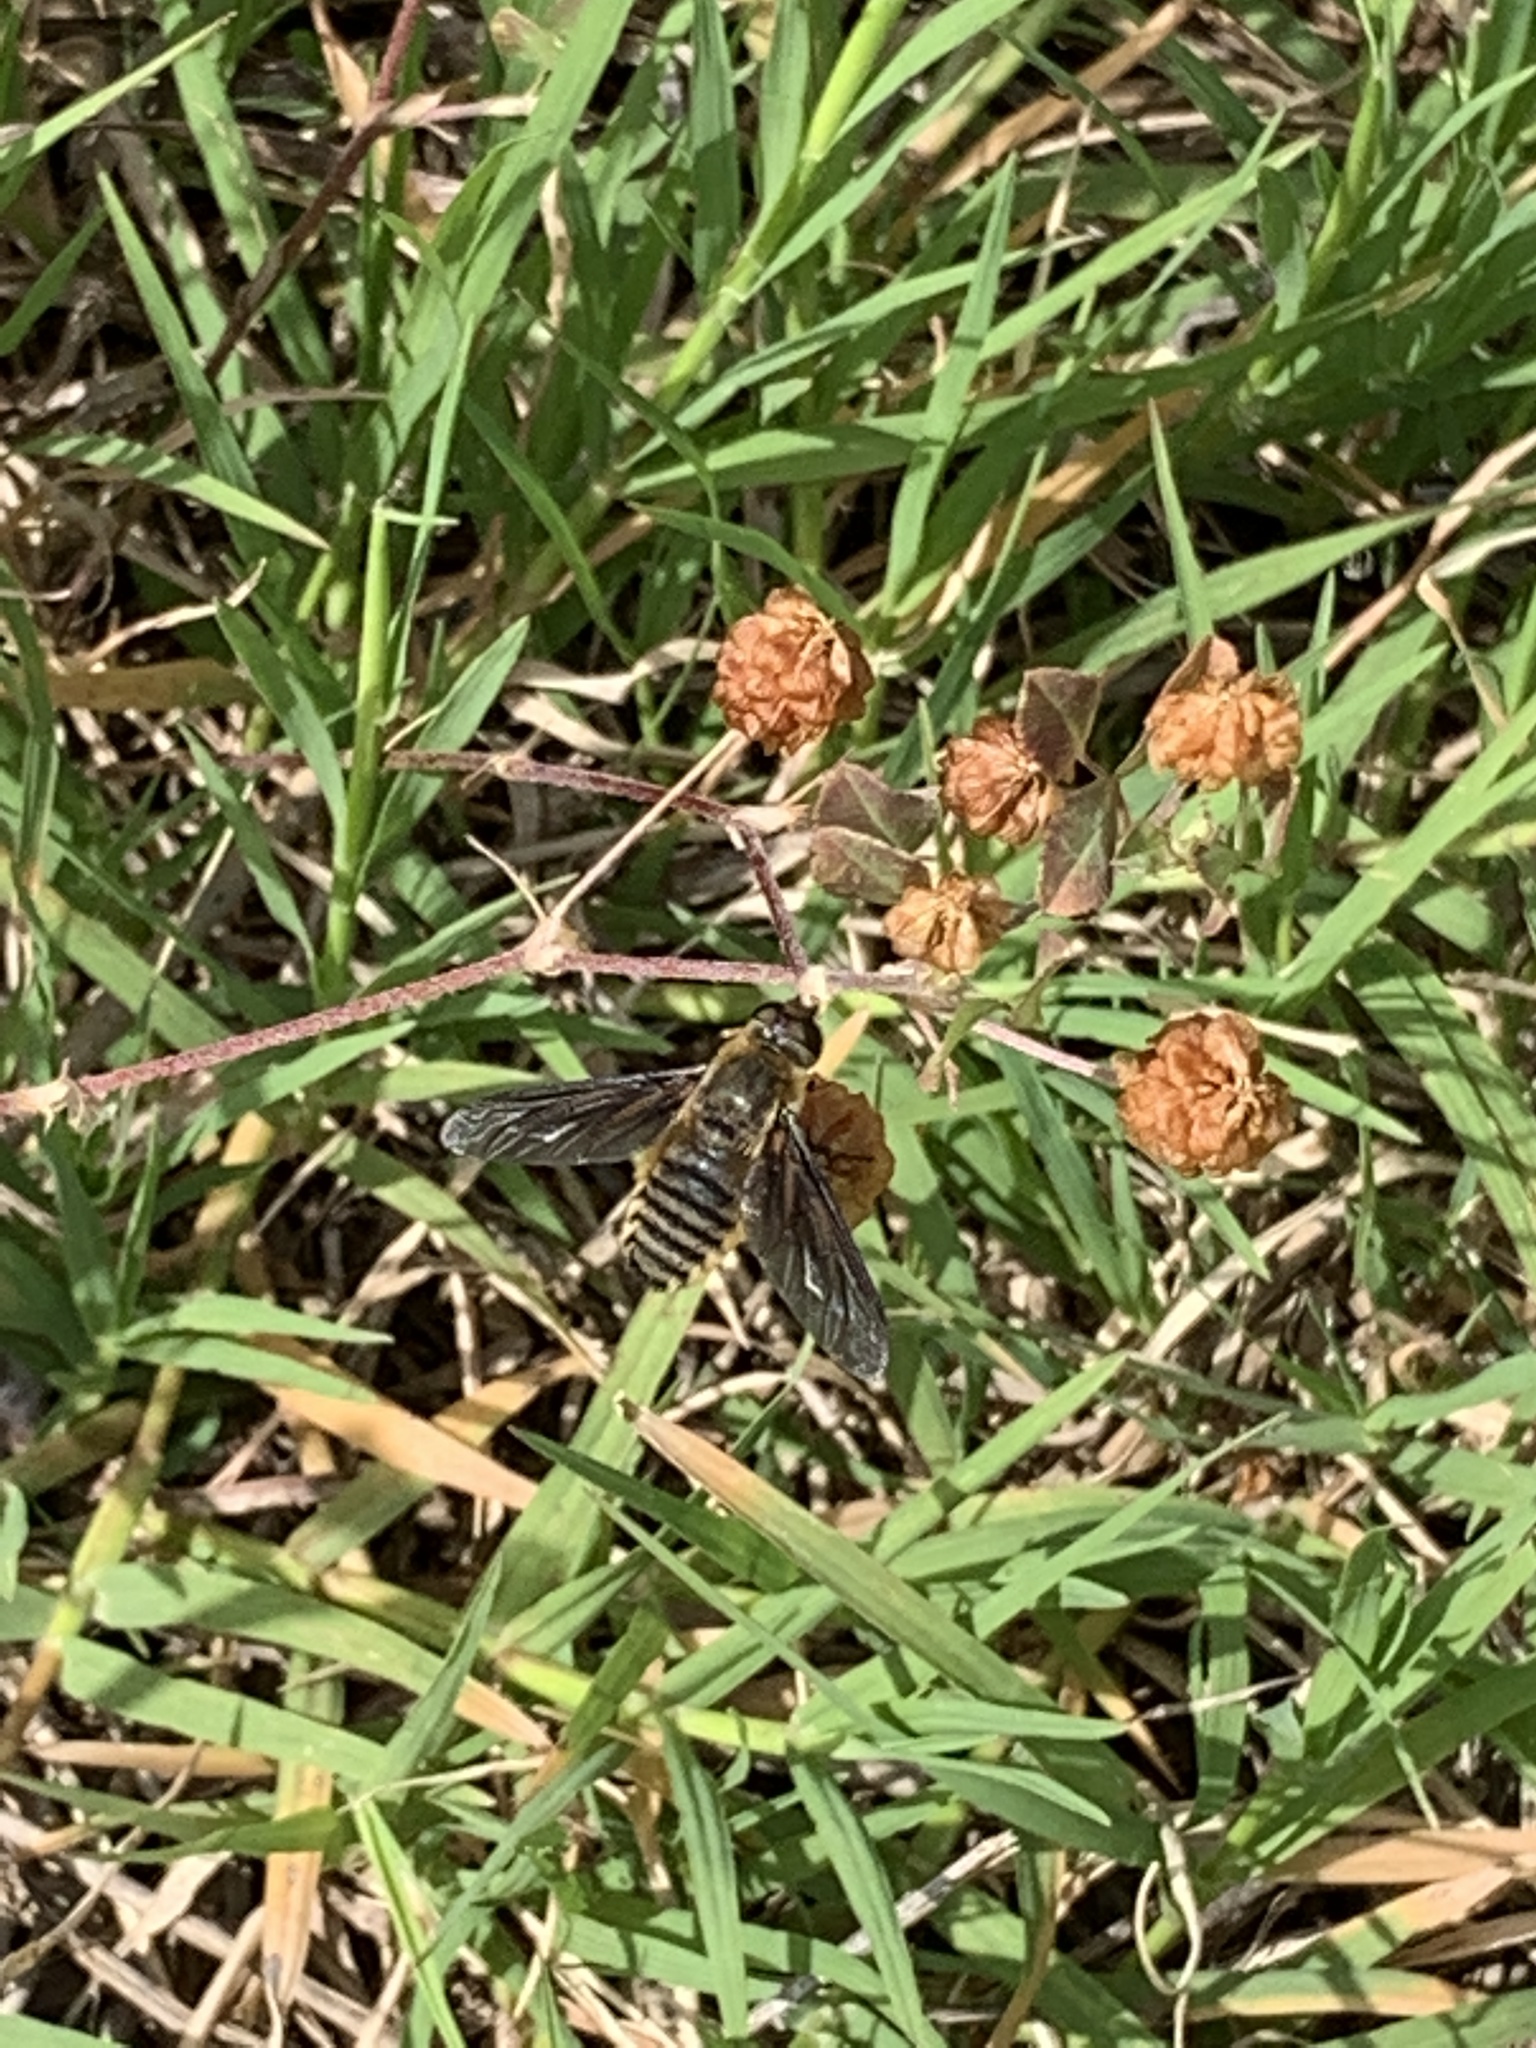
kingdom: Animalia
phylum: Arthropoda
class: Insecta
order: Diptera
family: Bombyliidae
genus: Poecilanthrax
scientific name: Poecilanthrax lucifer
